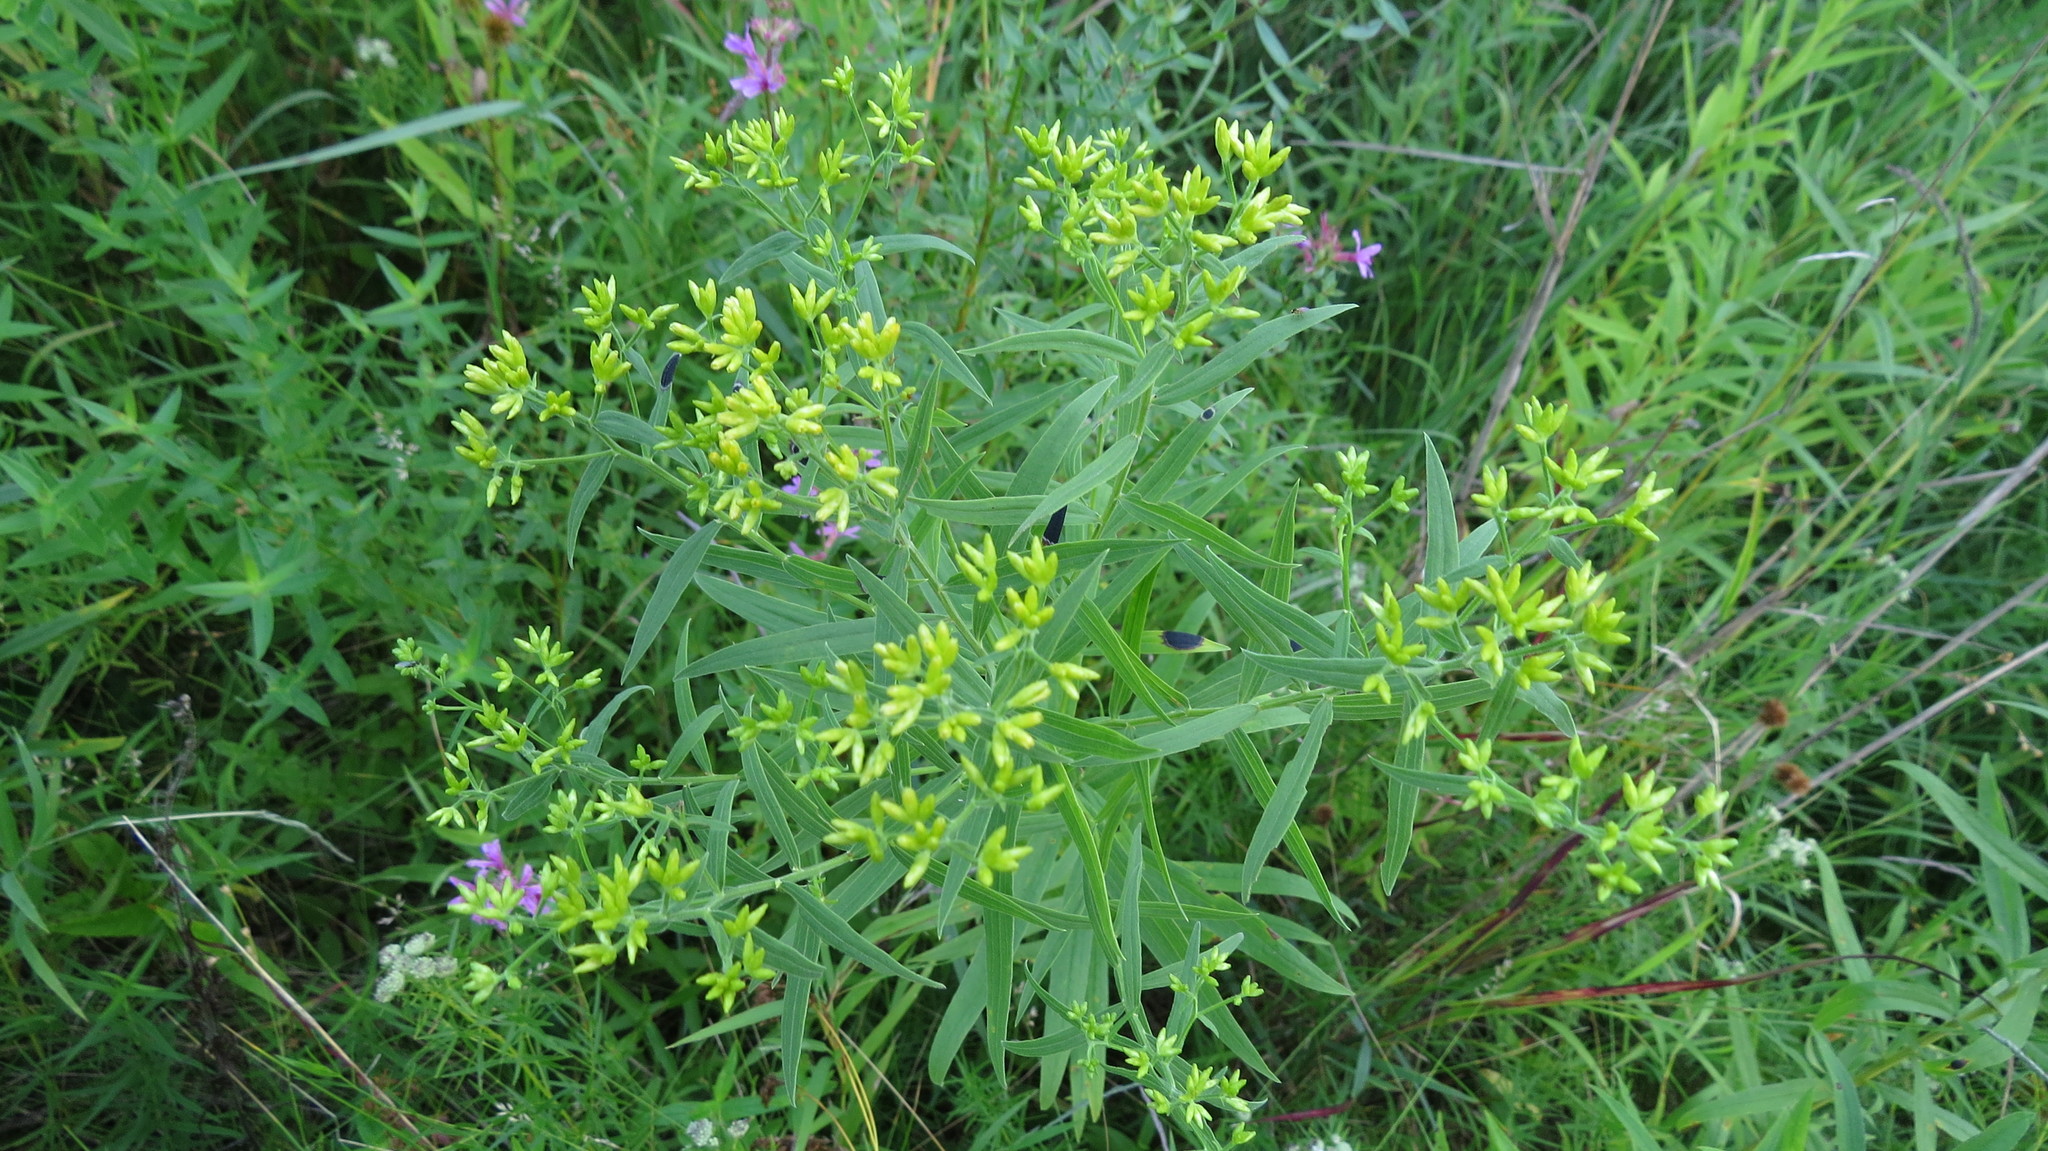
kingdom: Plantae
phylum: Tracheophyta
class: Magnoliopsida
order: Asterales
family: Asteraceae
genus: Euthamia
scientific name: Euthamia graminifolia
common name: Common goldentop
